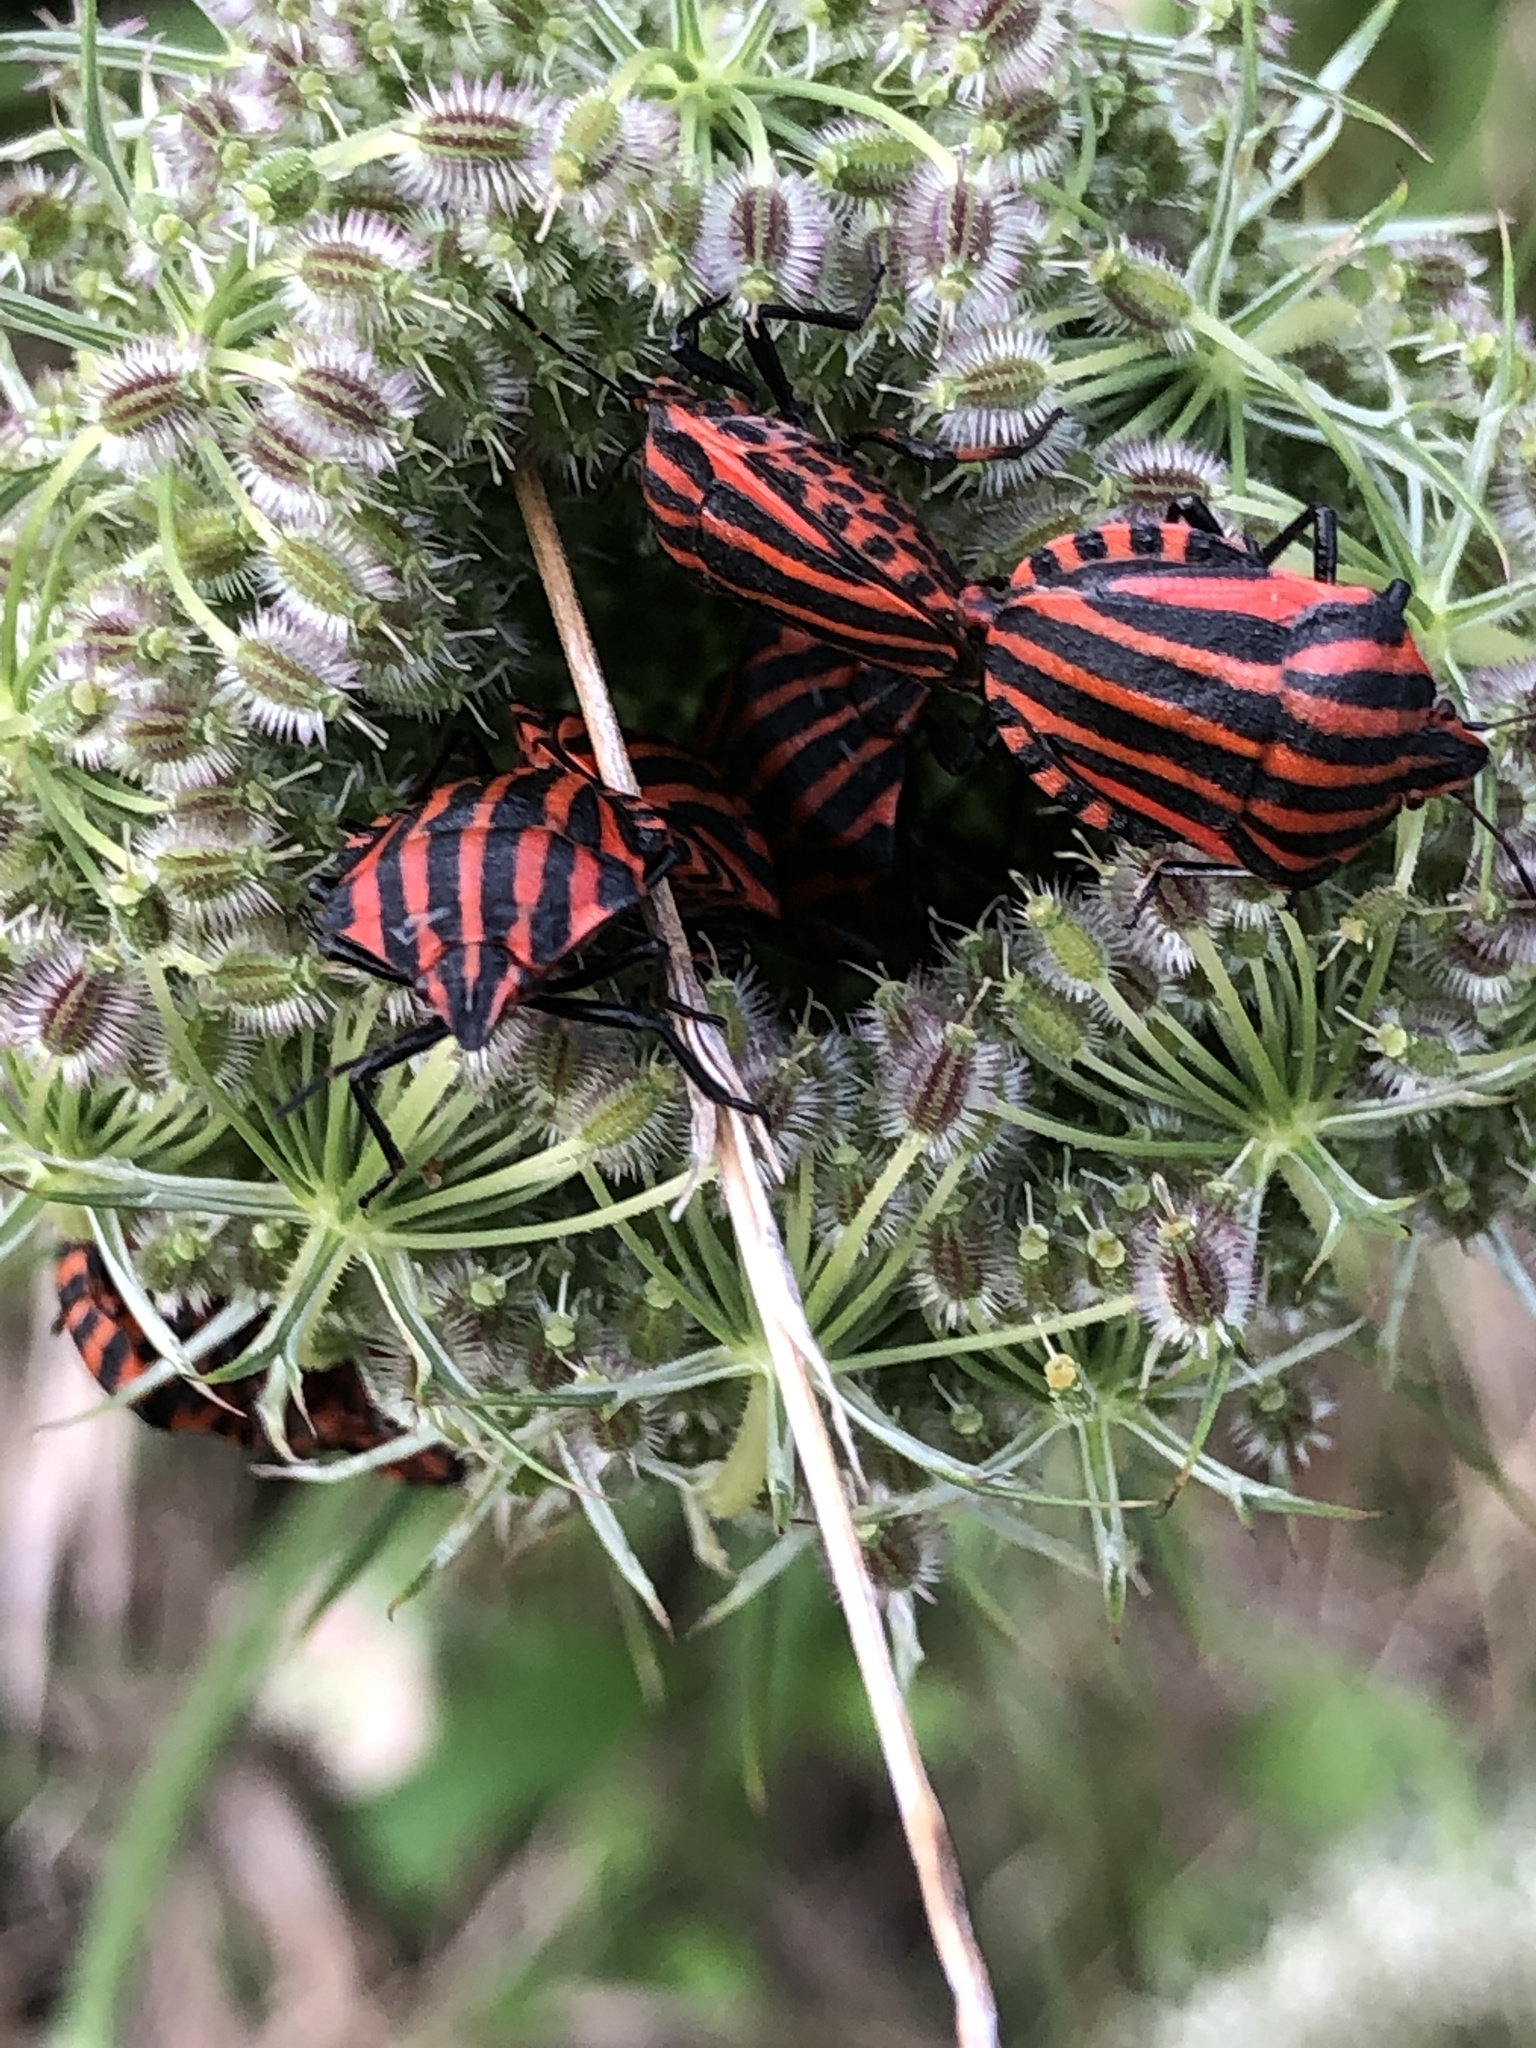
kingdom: Animalia
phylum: Arthropoda
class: Insecta
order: Hemiptera
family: Pentatomidae
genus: Graphosoma
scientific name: Graphosoma italicum
